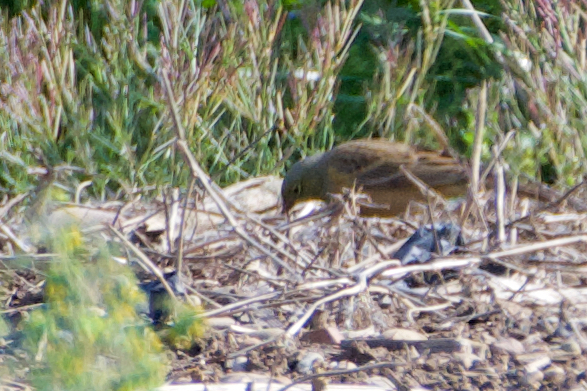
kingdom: Animalia
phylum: Chordata
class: Aves
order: Passeriformes
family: Emberizidae
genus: Emberiza
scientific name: Emberiza hortulana
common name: Ortolan bunting
